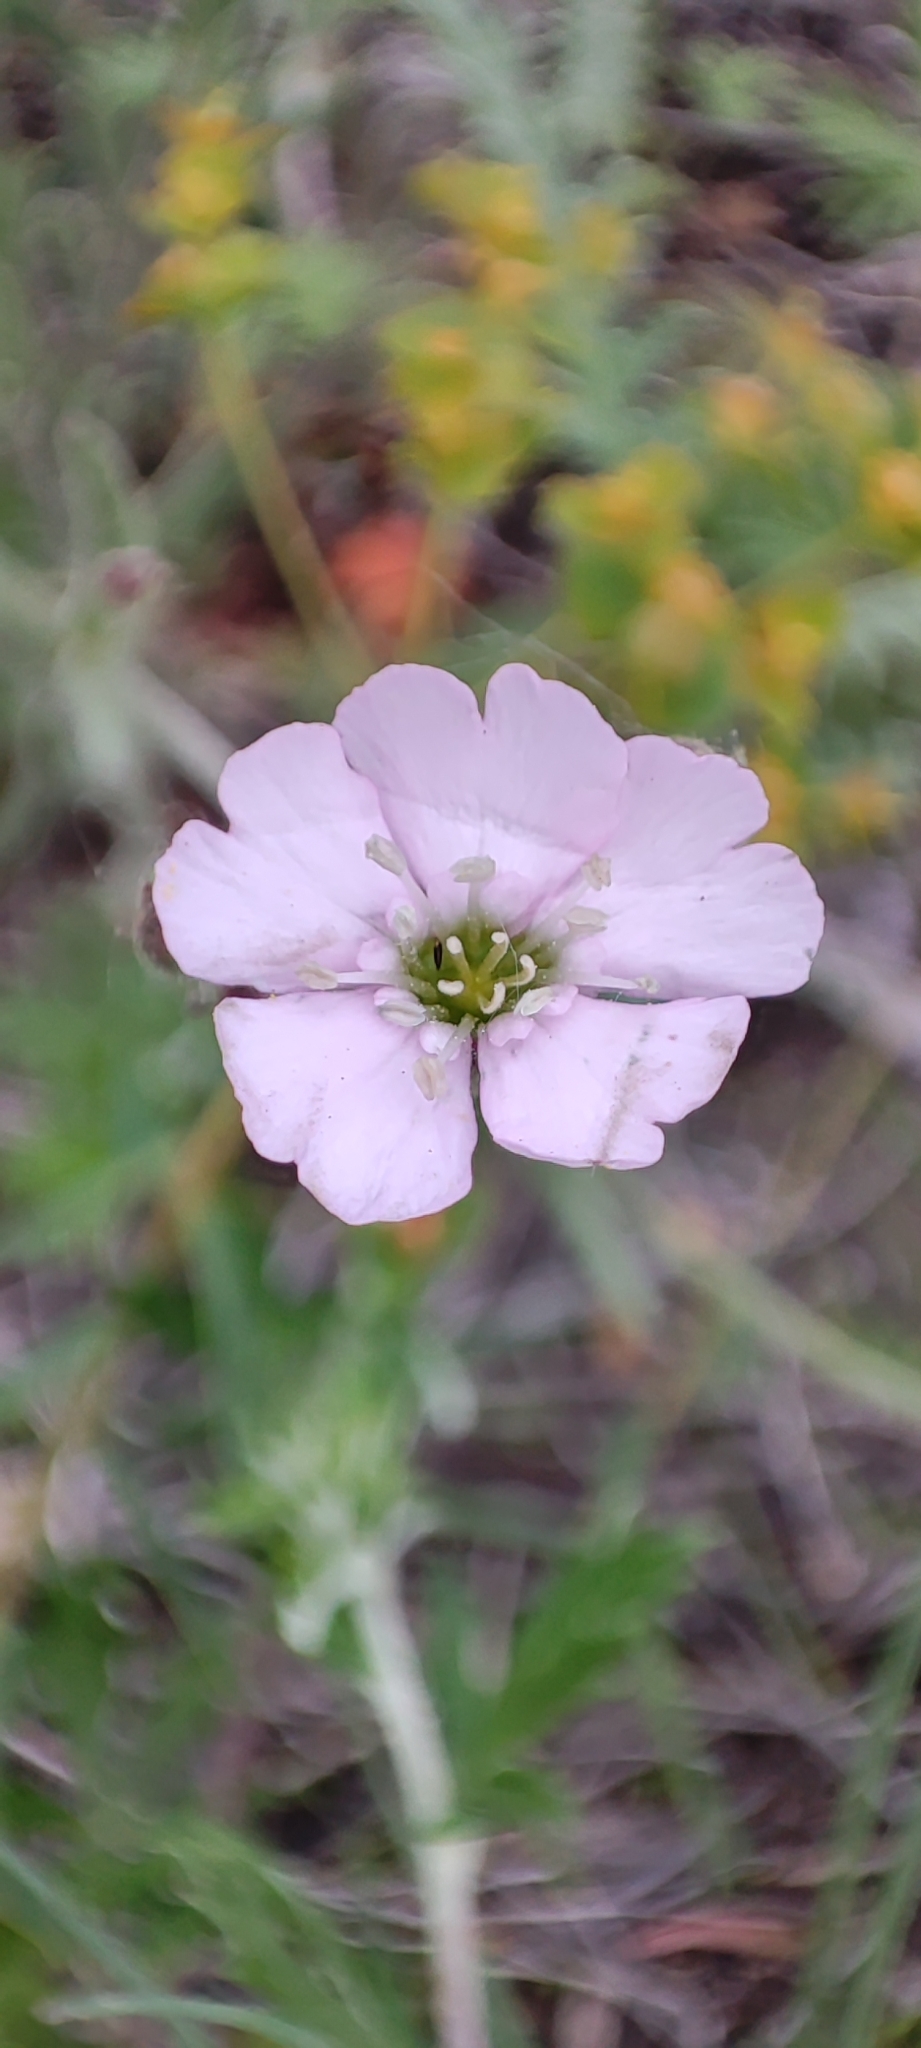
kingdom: Plantae
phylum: Tracheophyta
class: Magnoliopsida
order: Caryophyllales
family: Caryophyllaceae
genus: Silene
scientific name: Silene orientalimongolica
